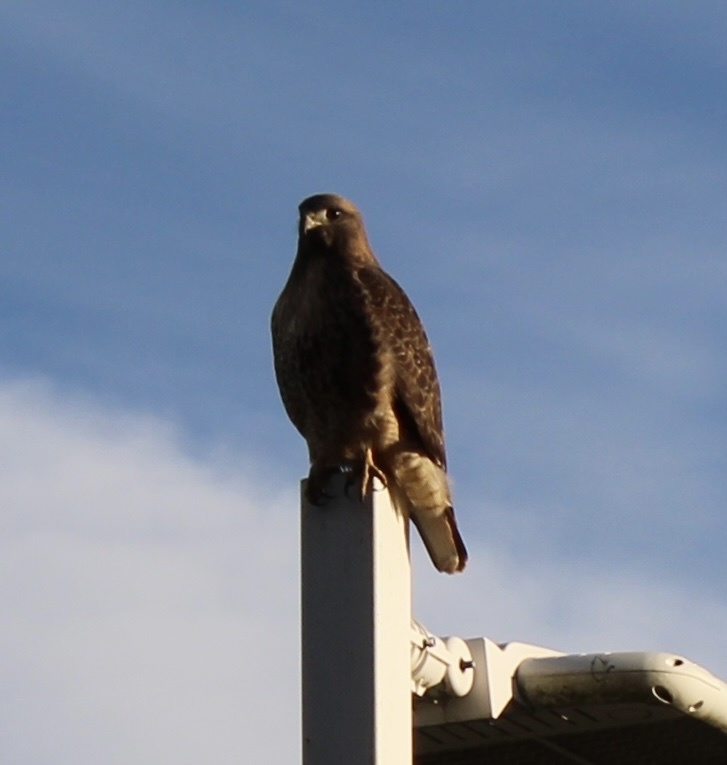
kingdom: Animalia
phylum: Chordata
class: Aves
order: Accipitriformes
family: Accipitridae
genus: Buteo
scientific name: Buteo jamaicensis
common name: Red-tailed hawk
